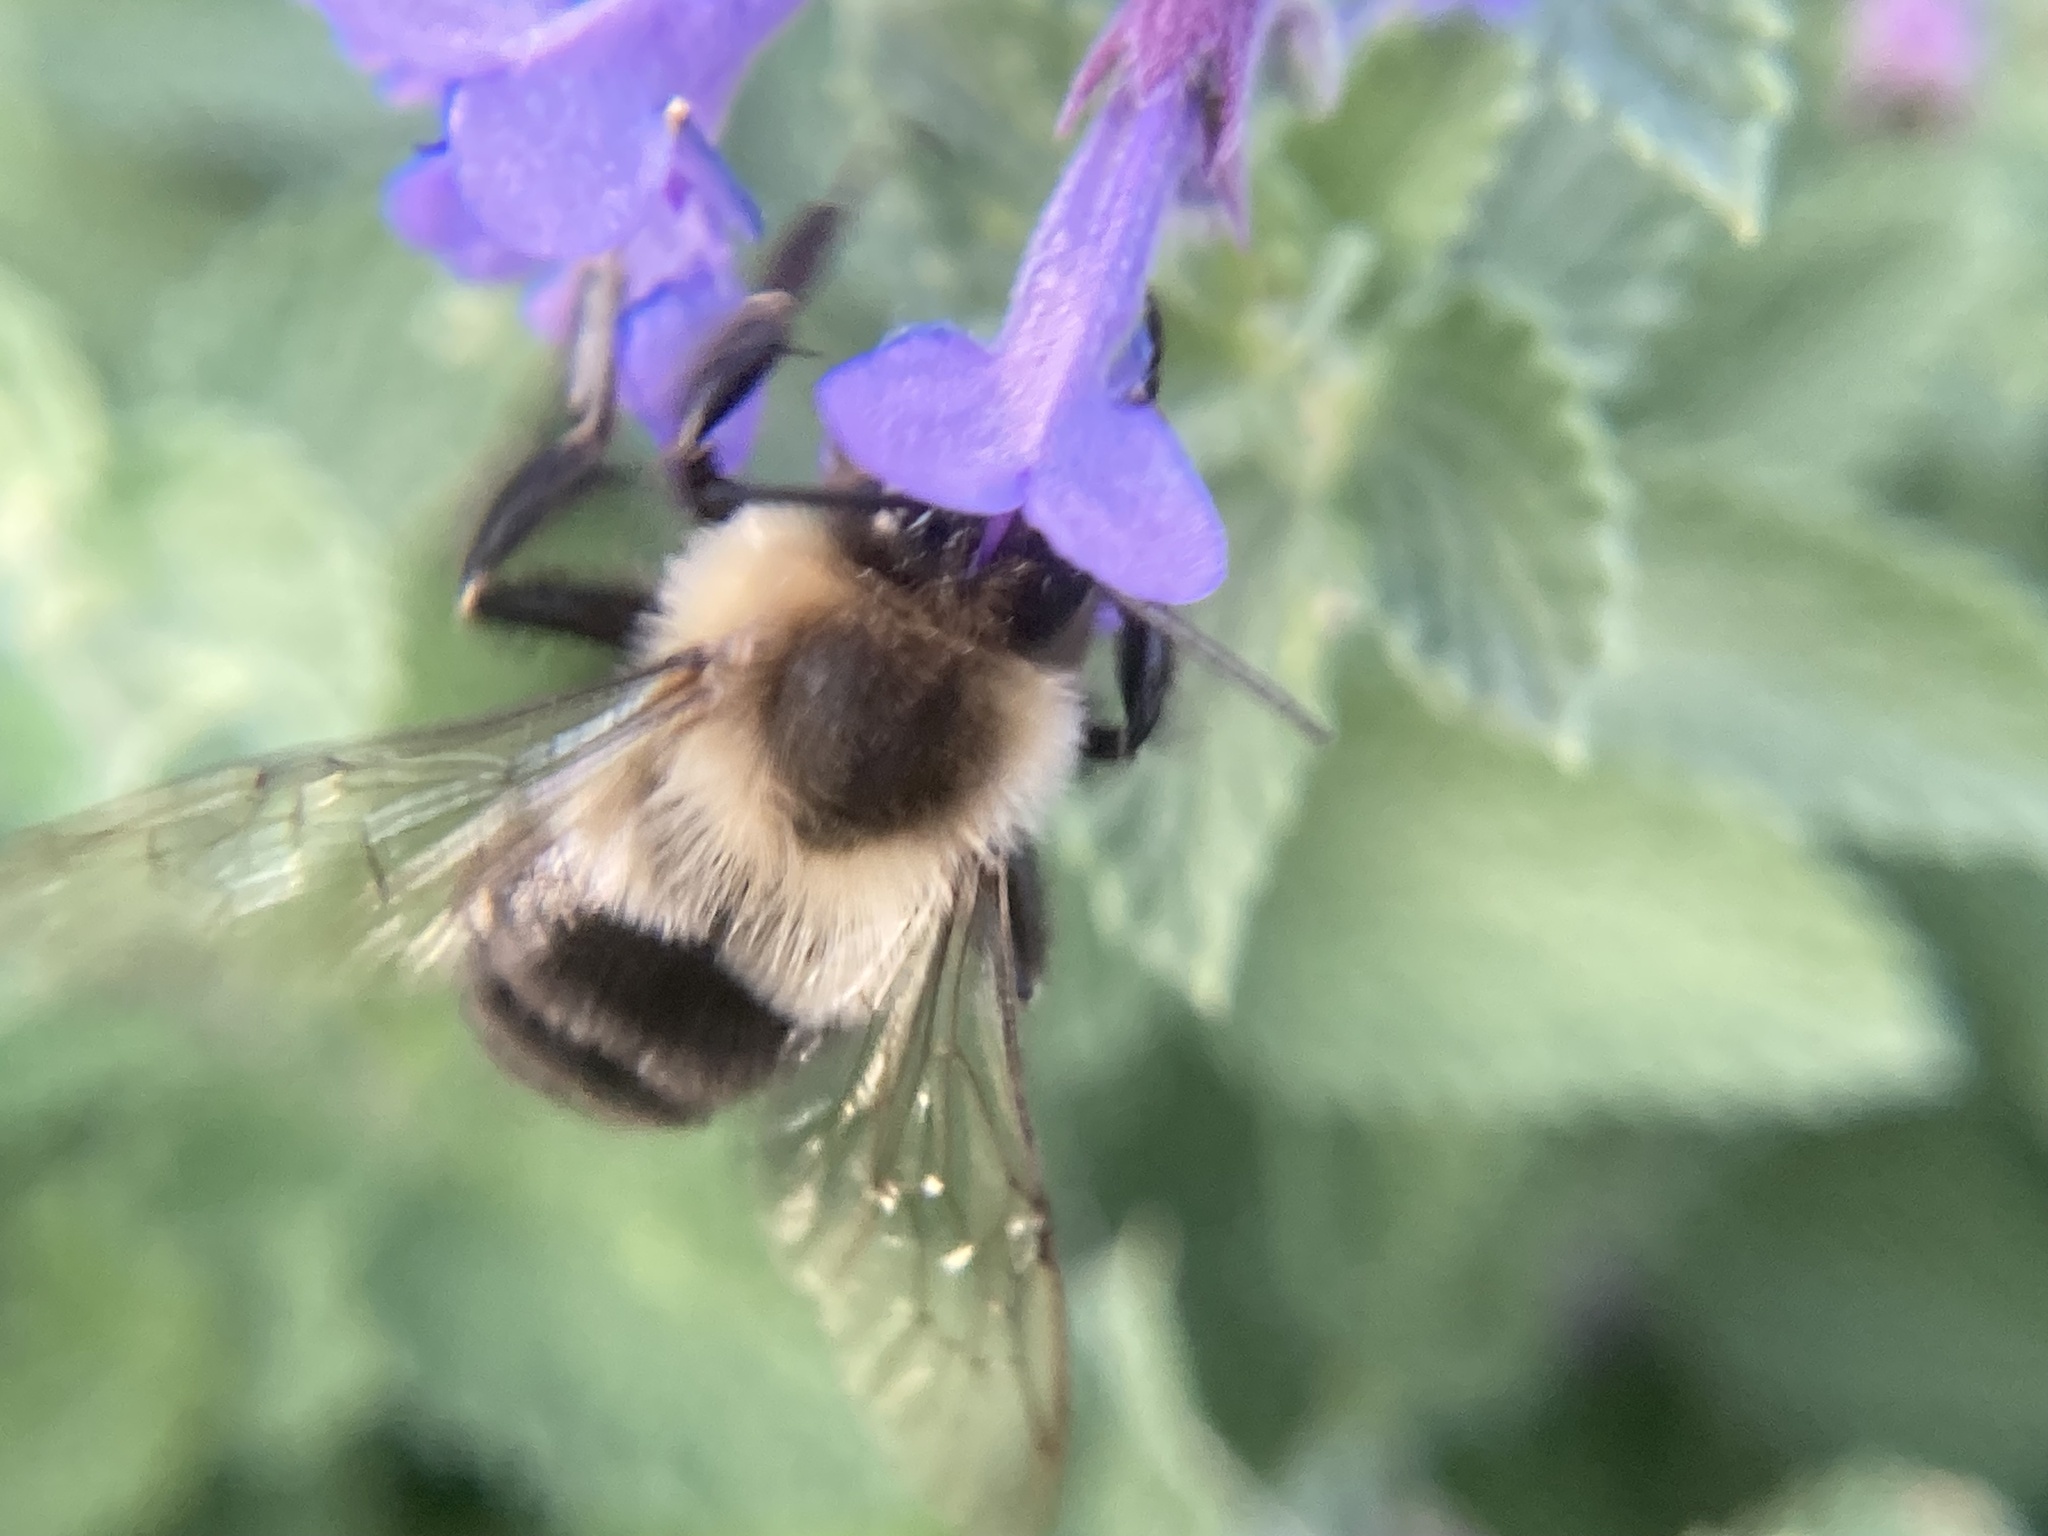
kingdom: Animalia
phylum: Arthropoda
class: Insecta
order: Hymenoptera
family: Apidae
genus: Bombus
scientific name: Bombus impatiens
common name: Common eastern bumble bee
